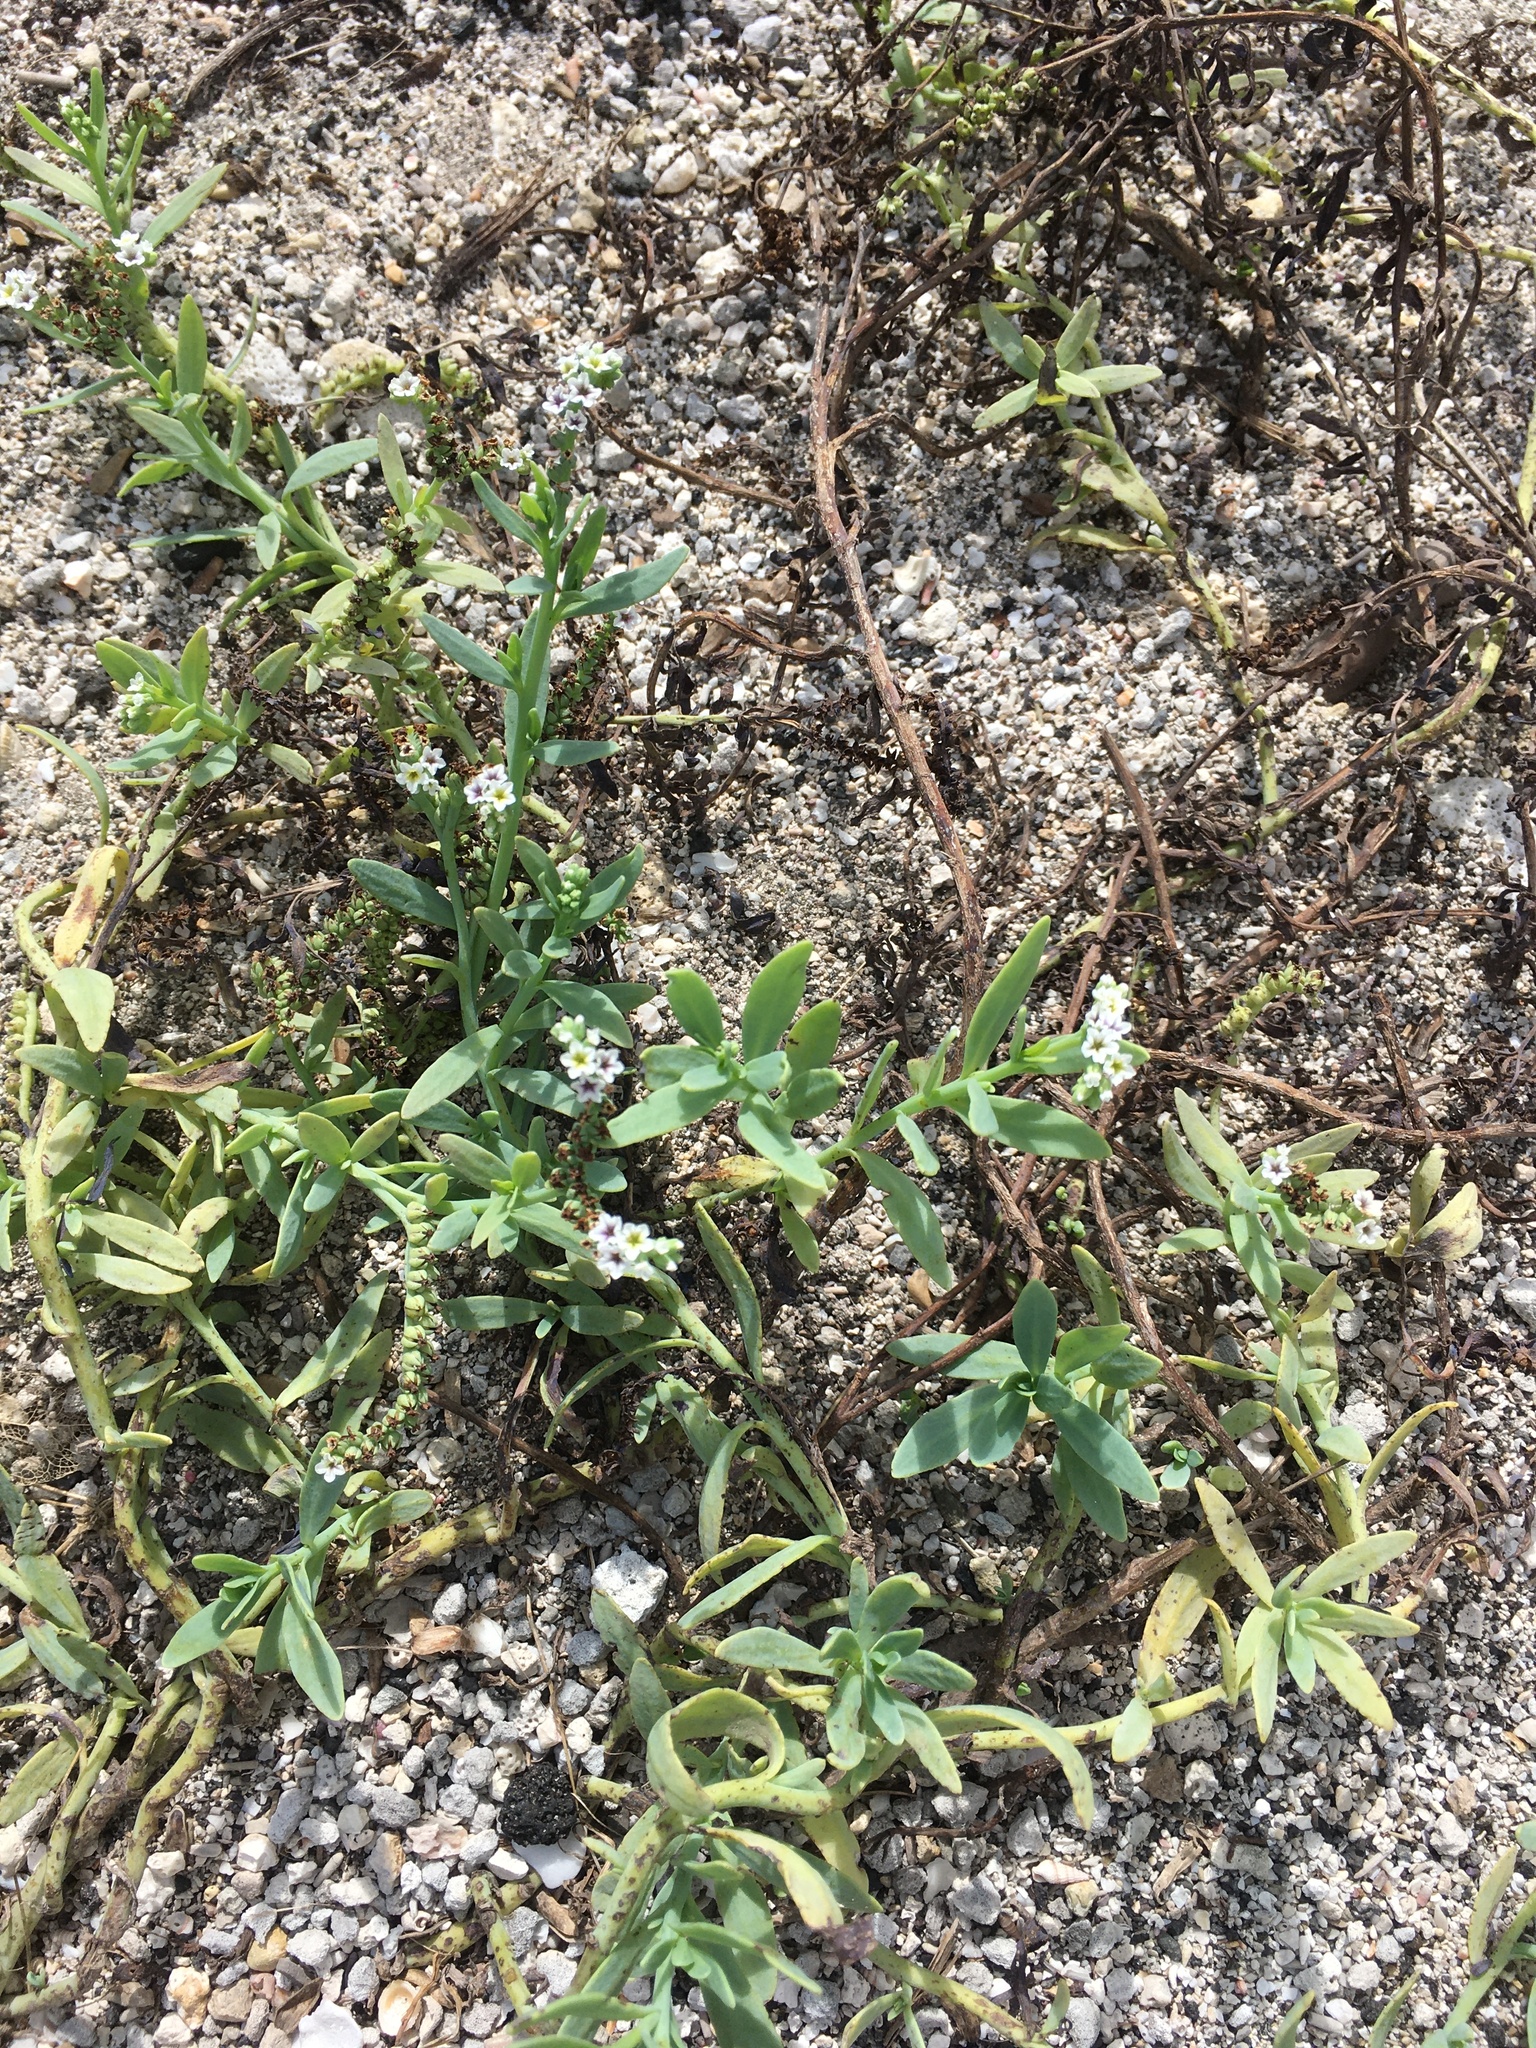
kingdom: Plantae
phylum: Tracheophyta
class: Magnoliopsida
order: Boraginales
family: Heliotropiaceae
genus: Heliotropium
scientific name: Heliotropium curassavicum
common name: Seaside heliotrope
